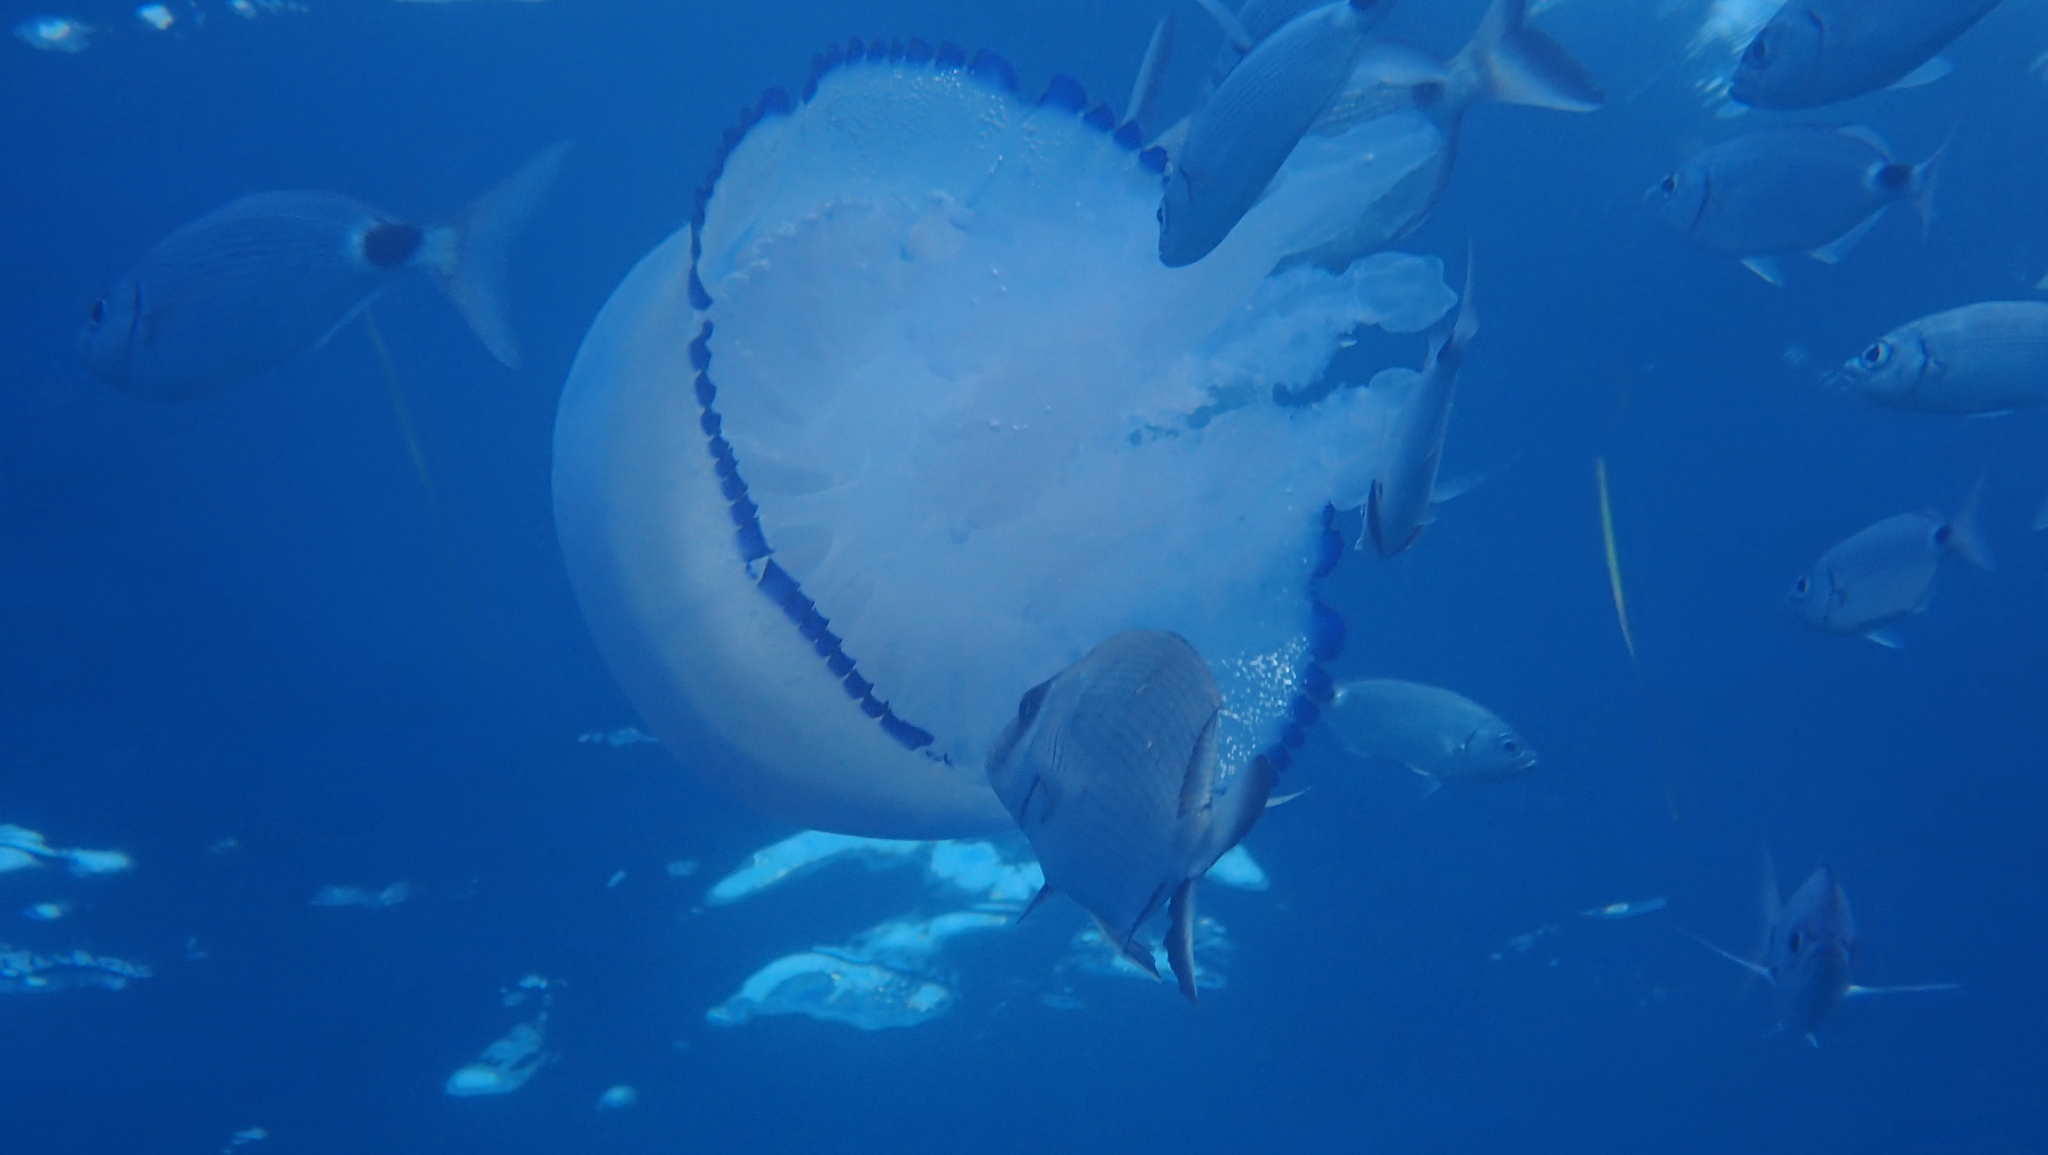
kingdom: Animalia
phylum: Cnidaria
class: Scyphozoa
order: Rhizostomeae
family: Rhizostomatidae
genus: Rhizostoma
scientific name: Rhizostoma pulmo
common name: Barrel jellyfish
